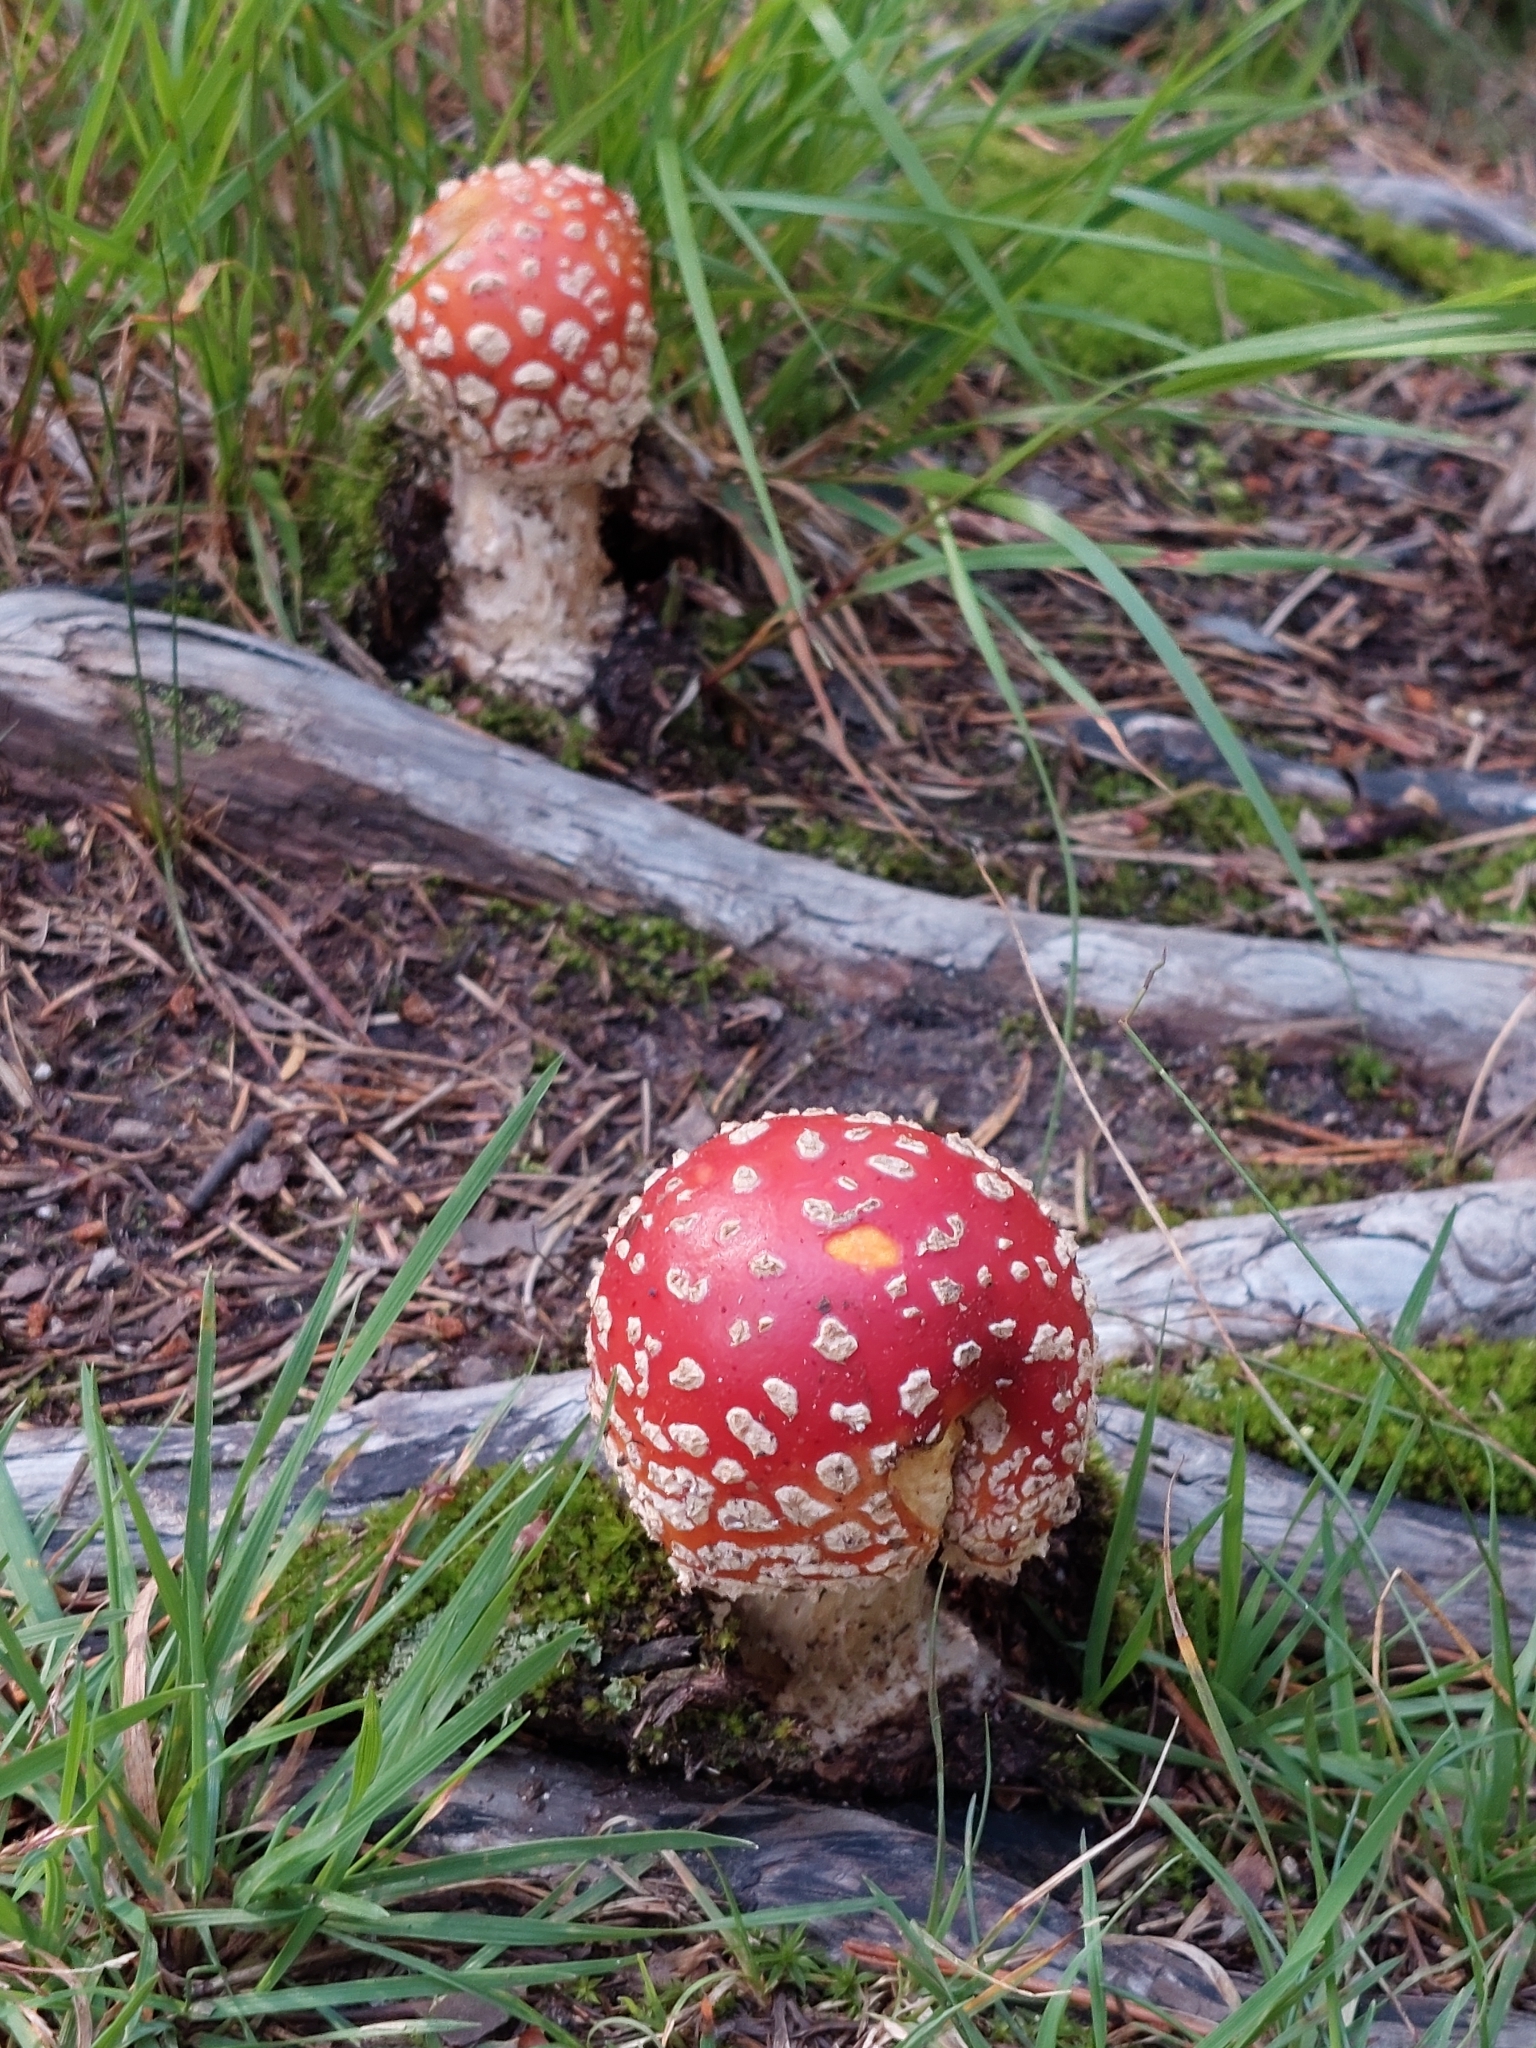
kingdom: Fungi
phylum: Basidiomycota
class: Agaricomycetes
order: Agaricales
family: Amanitaceae
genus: Amanita
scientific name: Amanita muscaria
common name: Fly agaric
